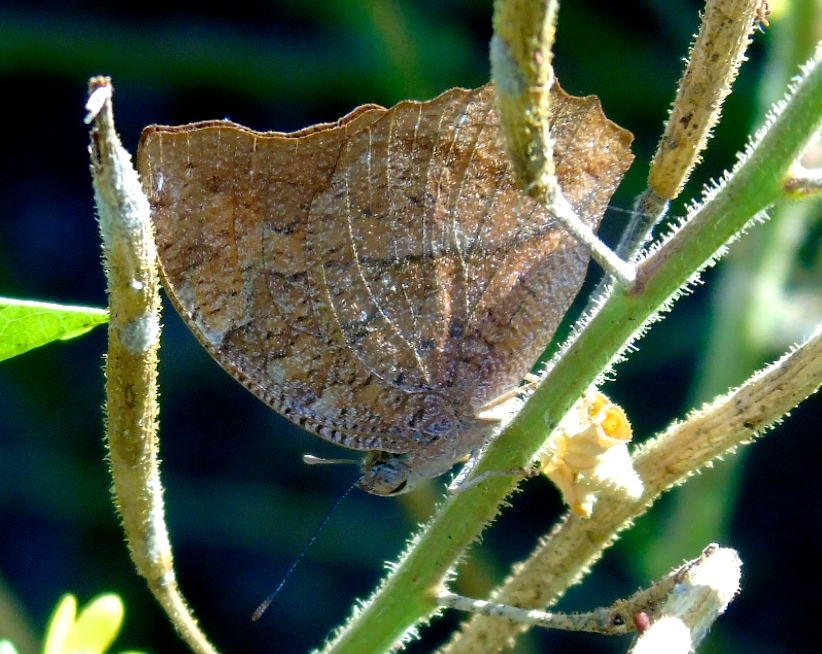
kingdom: Animalia
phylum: Arthropoda
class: Insecta
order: Lepidoptera
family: Nymphalidae
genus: Fountainea
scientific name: Fountainea
